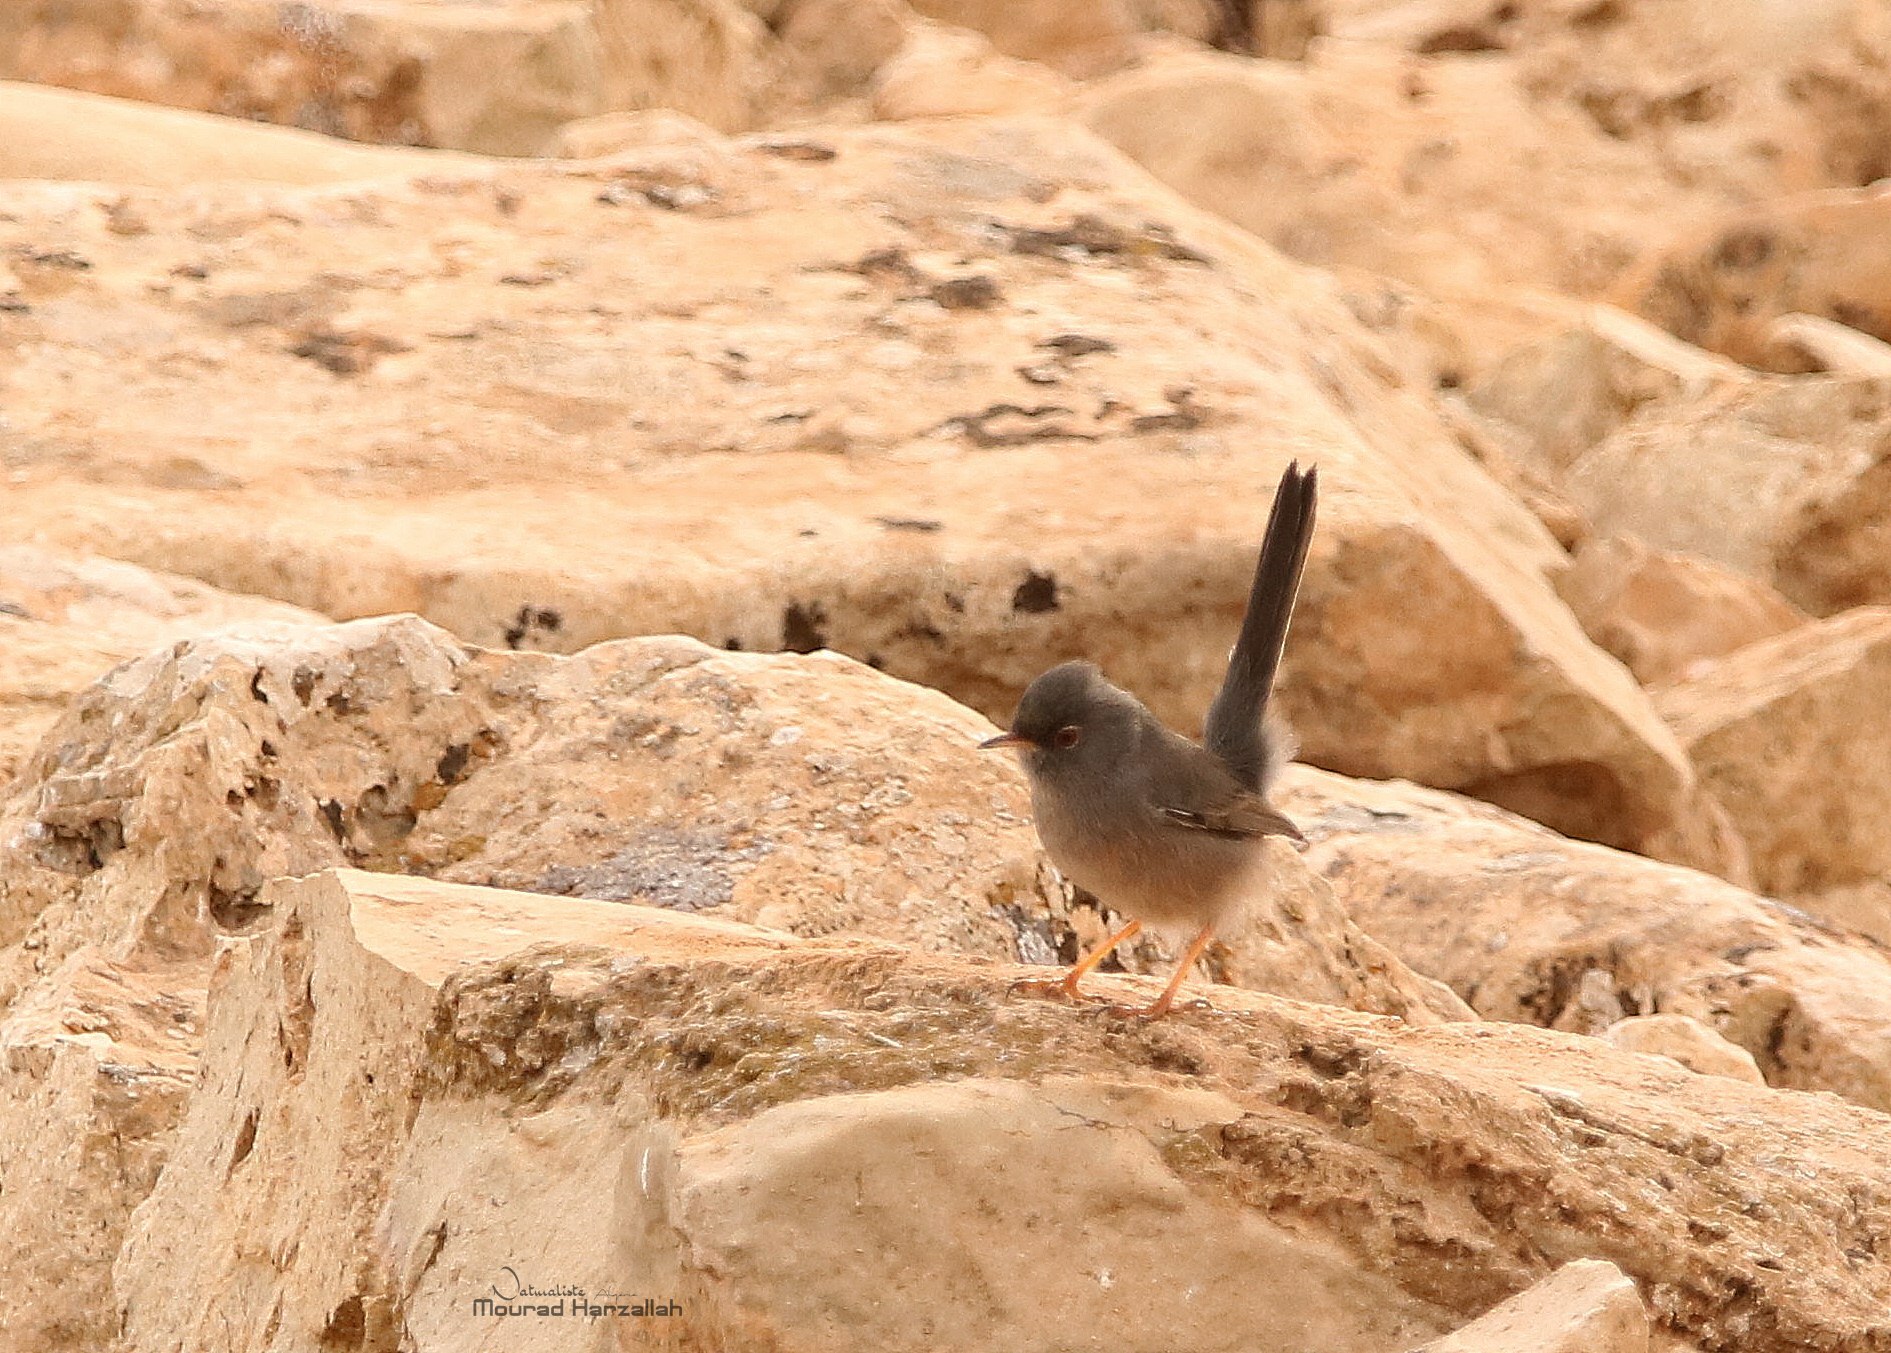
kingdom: Animalia
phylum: Chordata
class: Aves
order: Passeriformes
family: Sylviidae
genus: Sylvia
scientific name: Sylvia sarda
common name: Marmora's warbler
